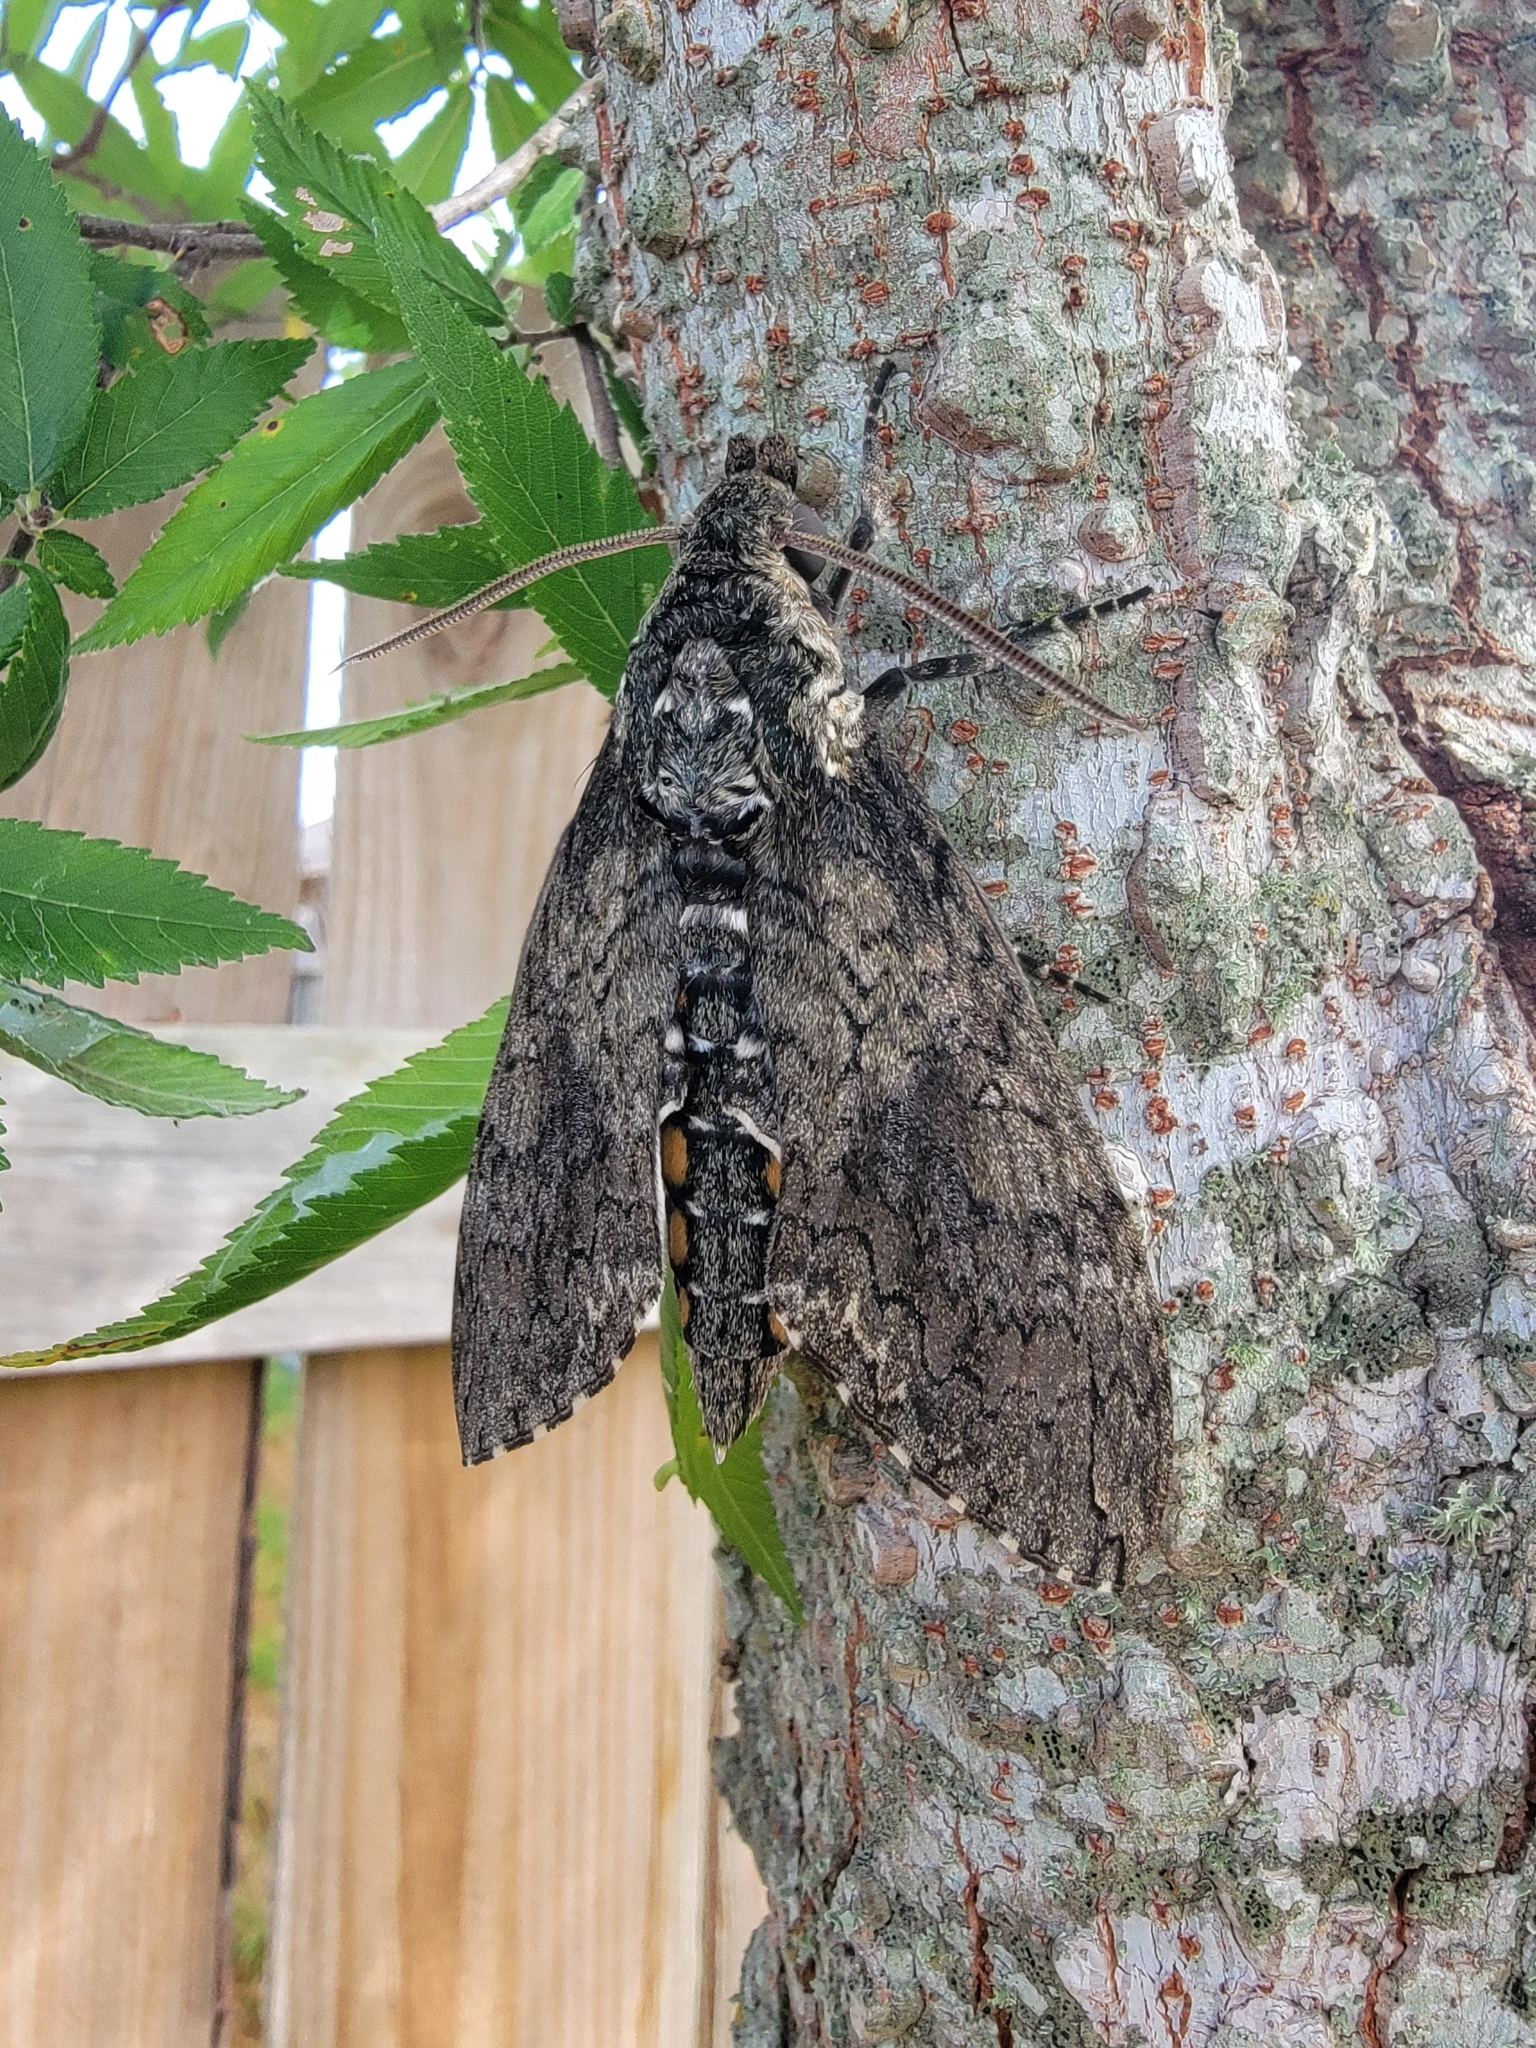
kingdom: Animalia
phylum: Arthropoda
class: Insecta
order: Lepidoptera
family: Sphingidae
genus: Manduca
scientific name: Manduca sexta
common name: Carolina sphinx
